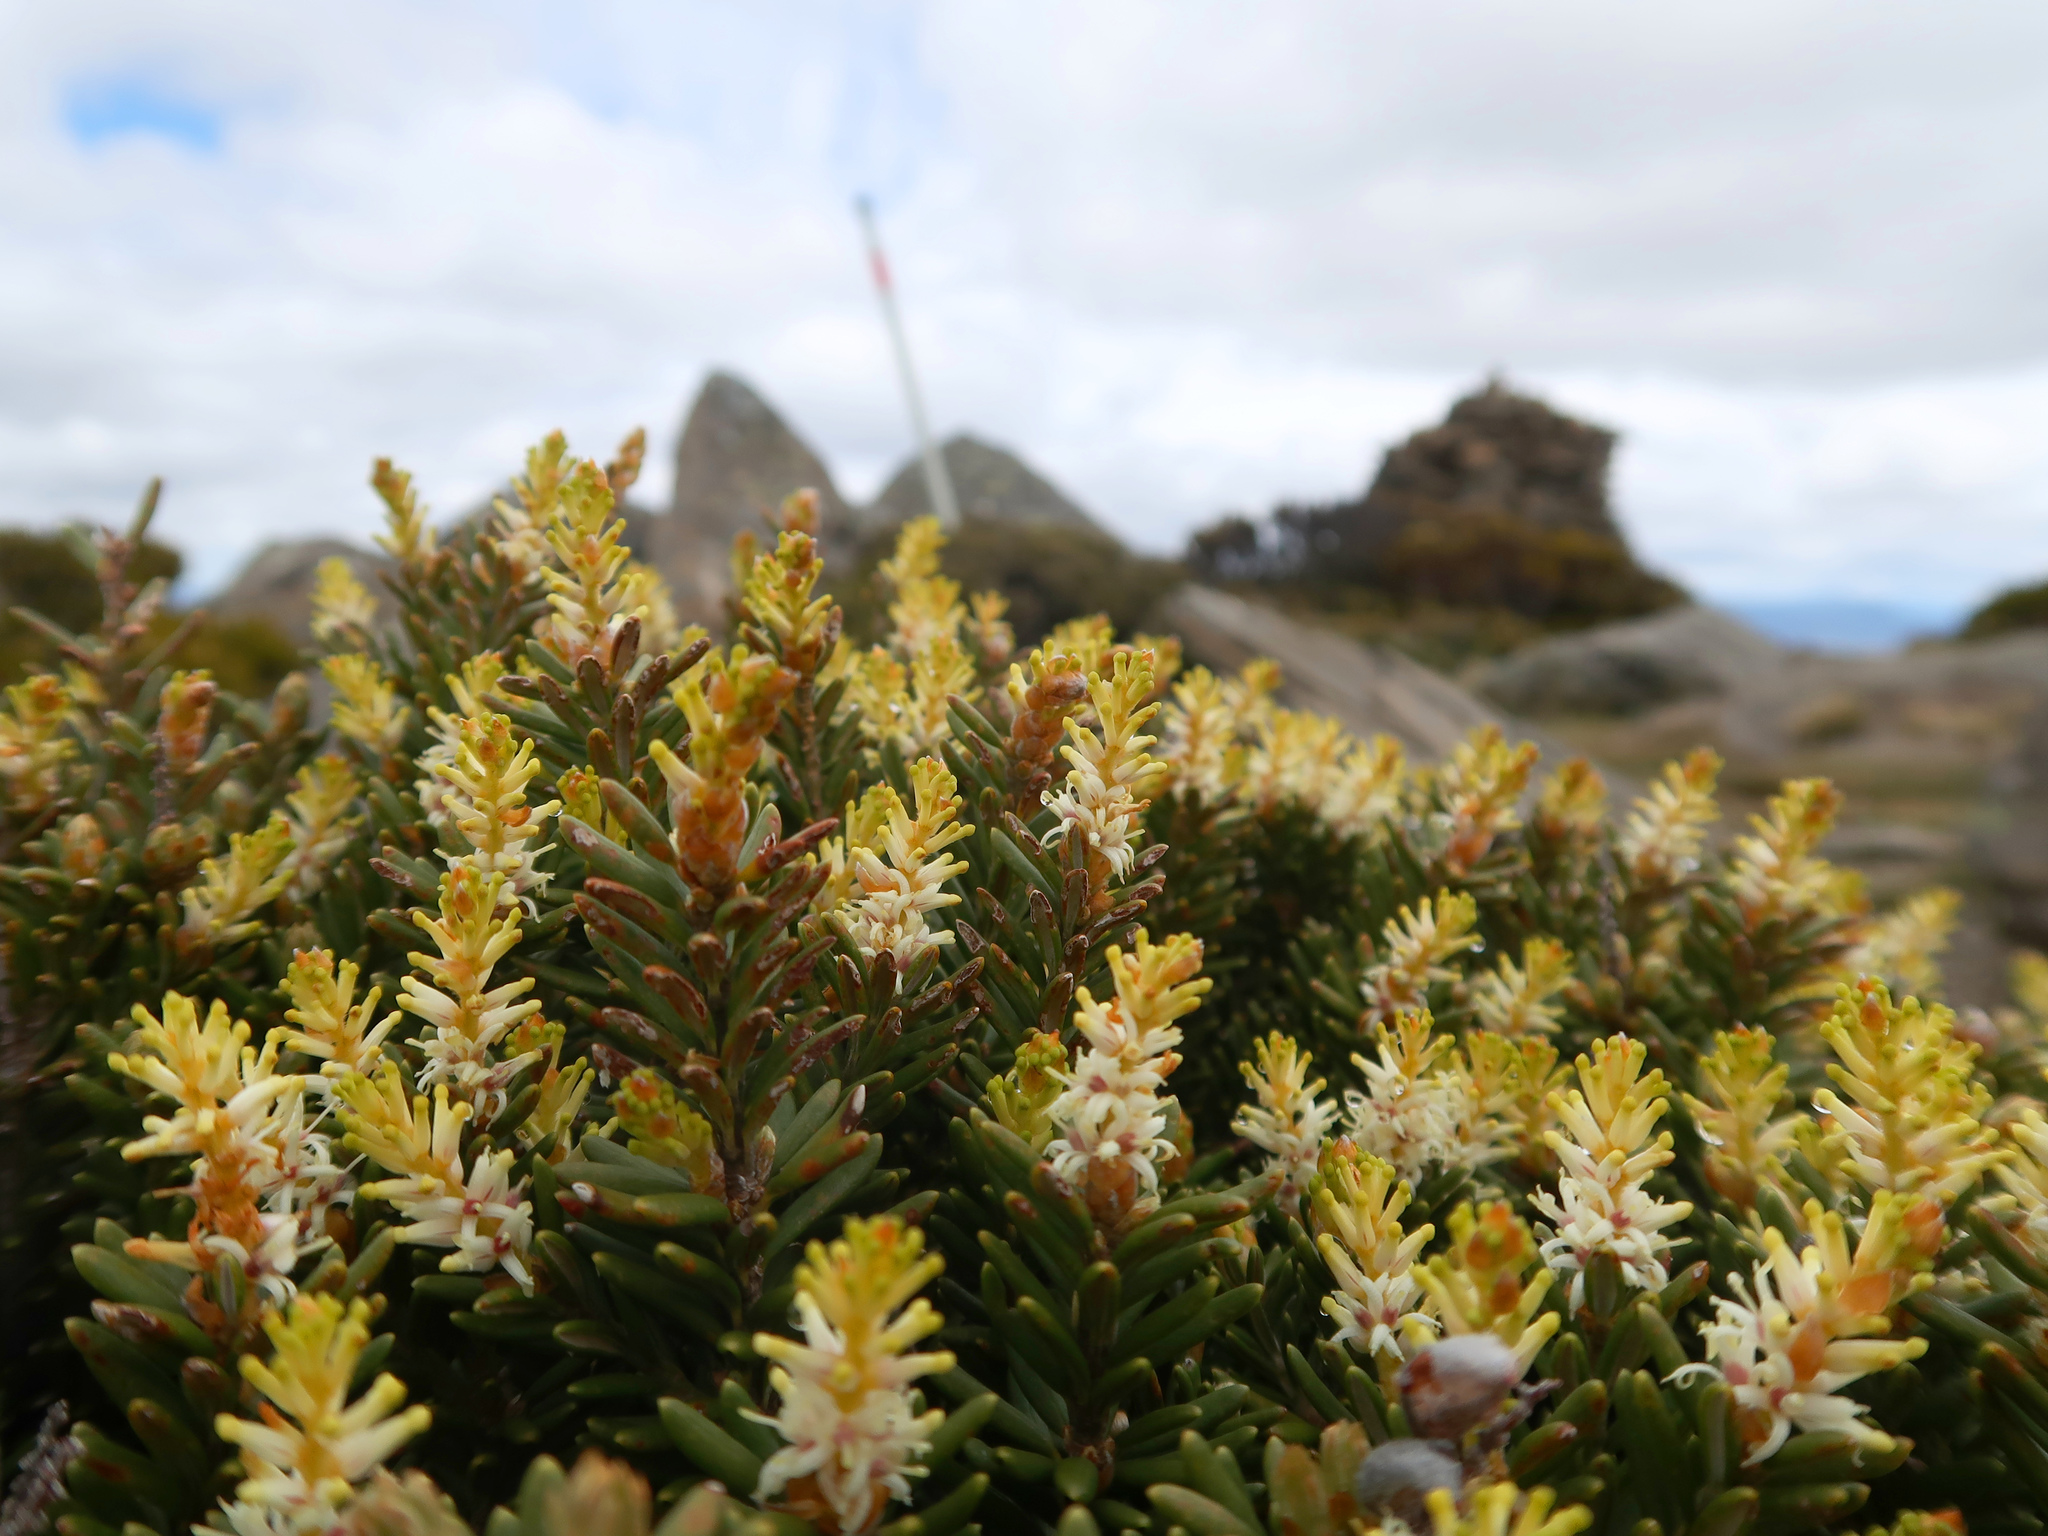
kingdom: Plantae
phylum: Tracheophyta
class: Magnoliopsida
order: Proteales
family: Proteaceae
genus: Orites
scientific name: Orites revolutus
